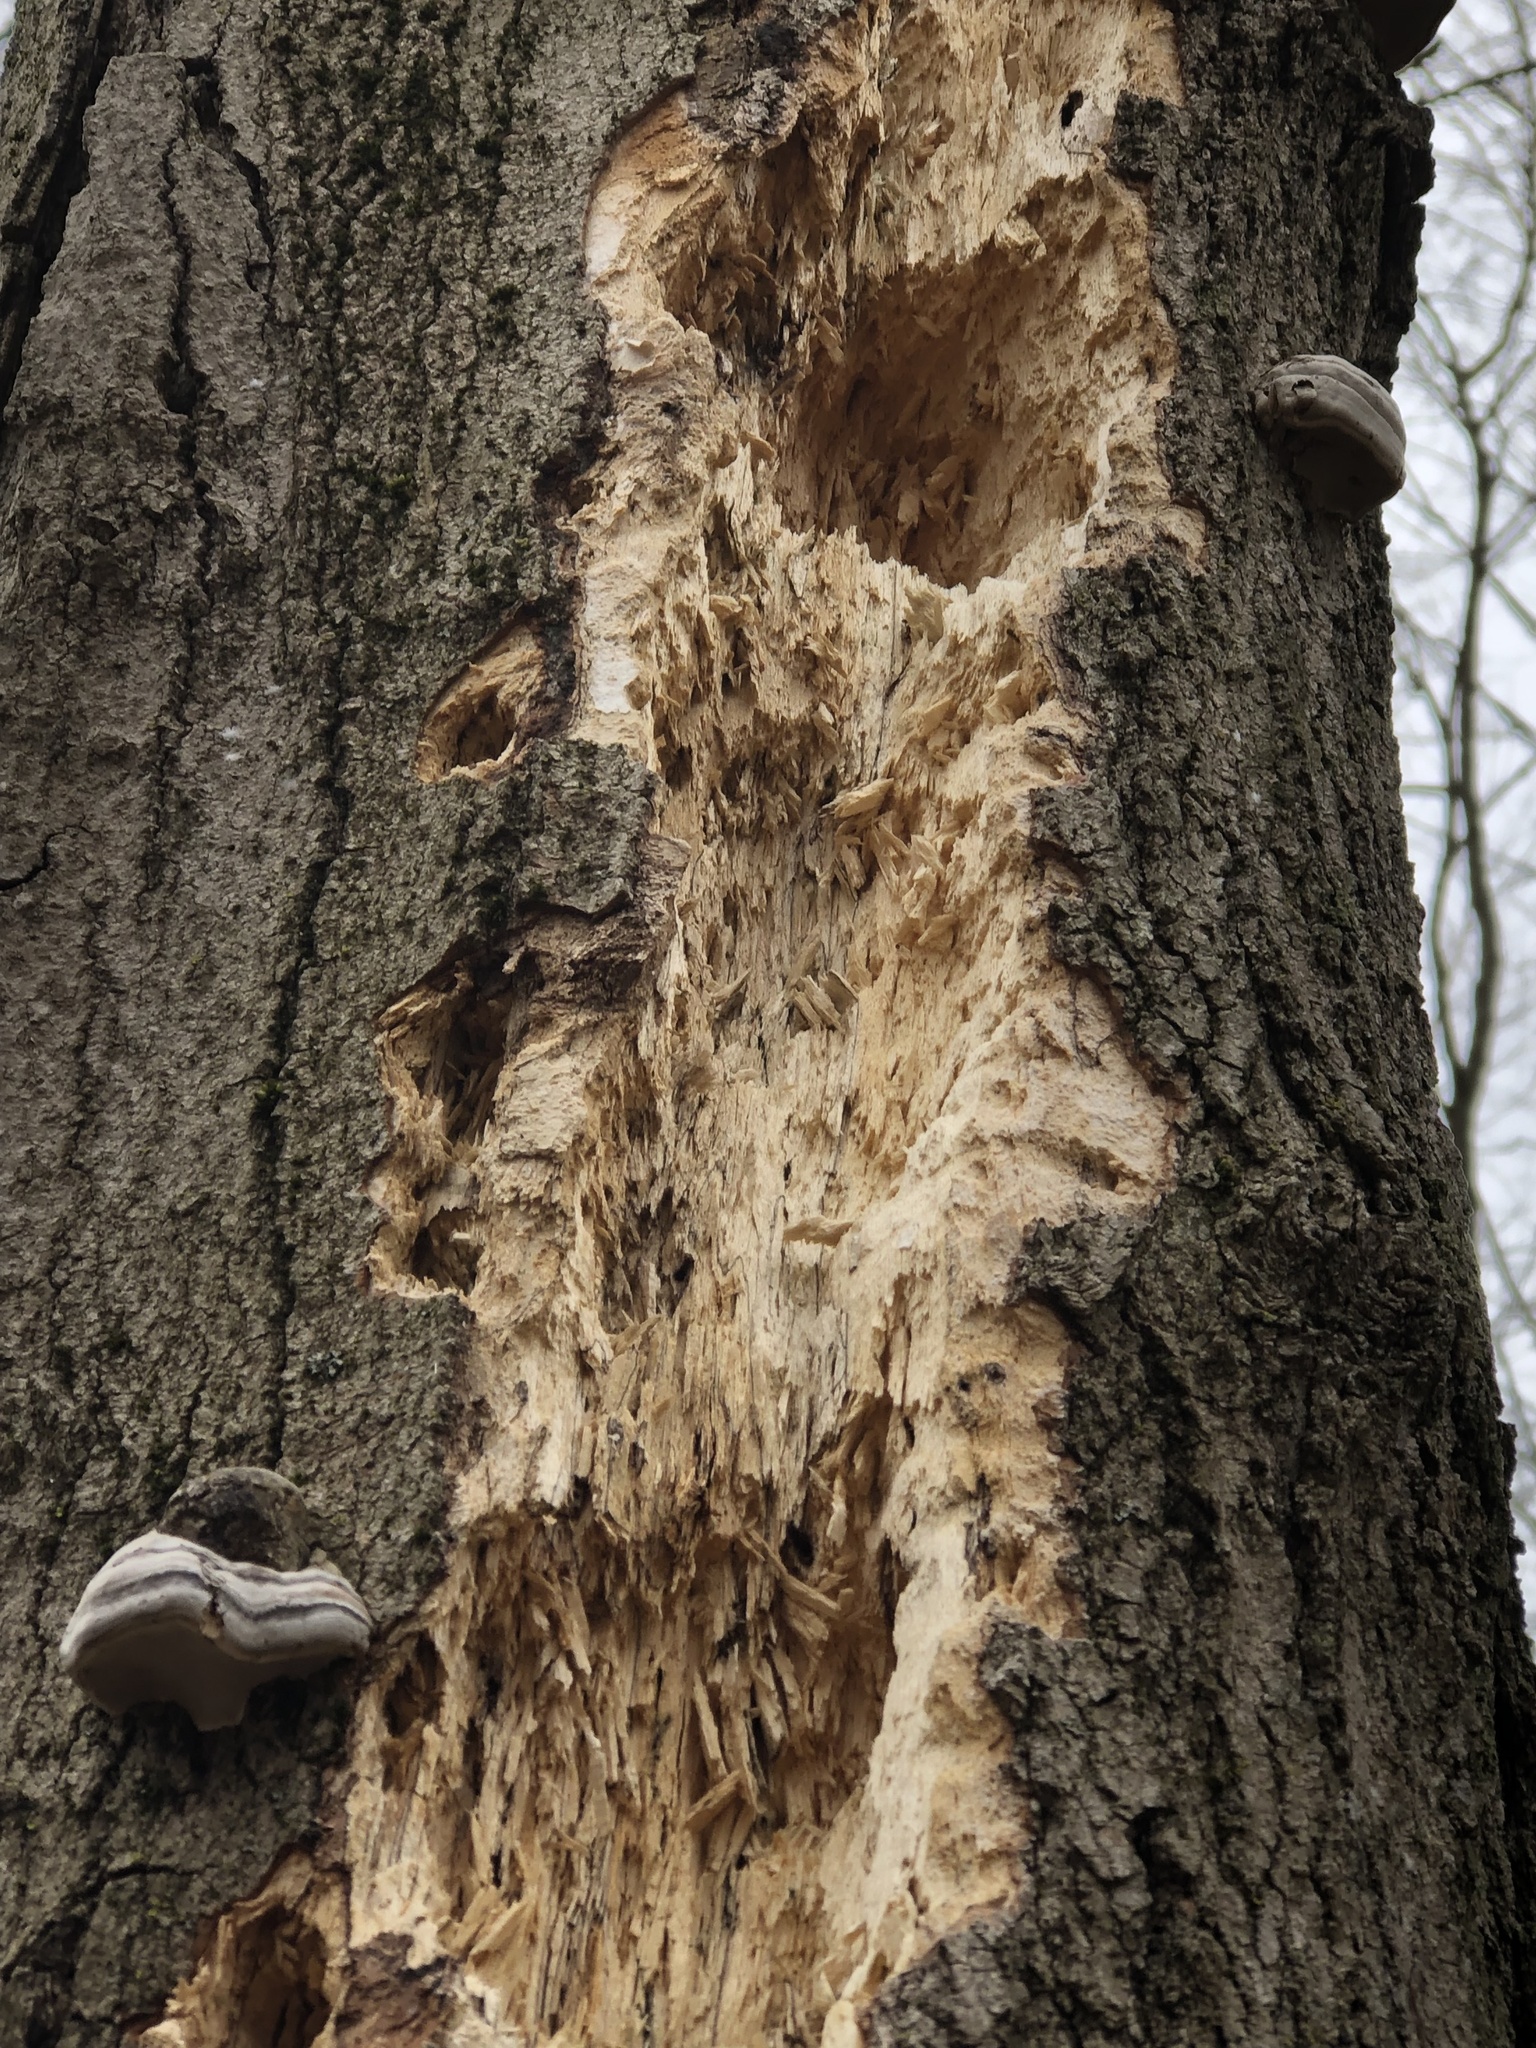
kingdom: Animalia
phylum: Chordata
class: Aves
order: Piciformes
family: Picidae
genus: Dryocopus
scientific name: Dryocopus pileatus
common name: Pileated woodpecker
